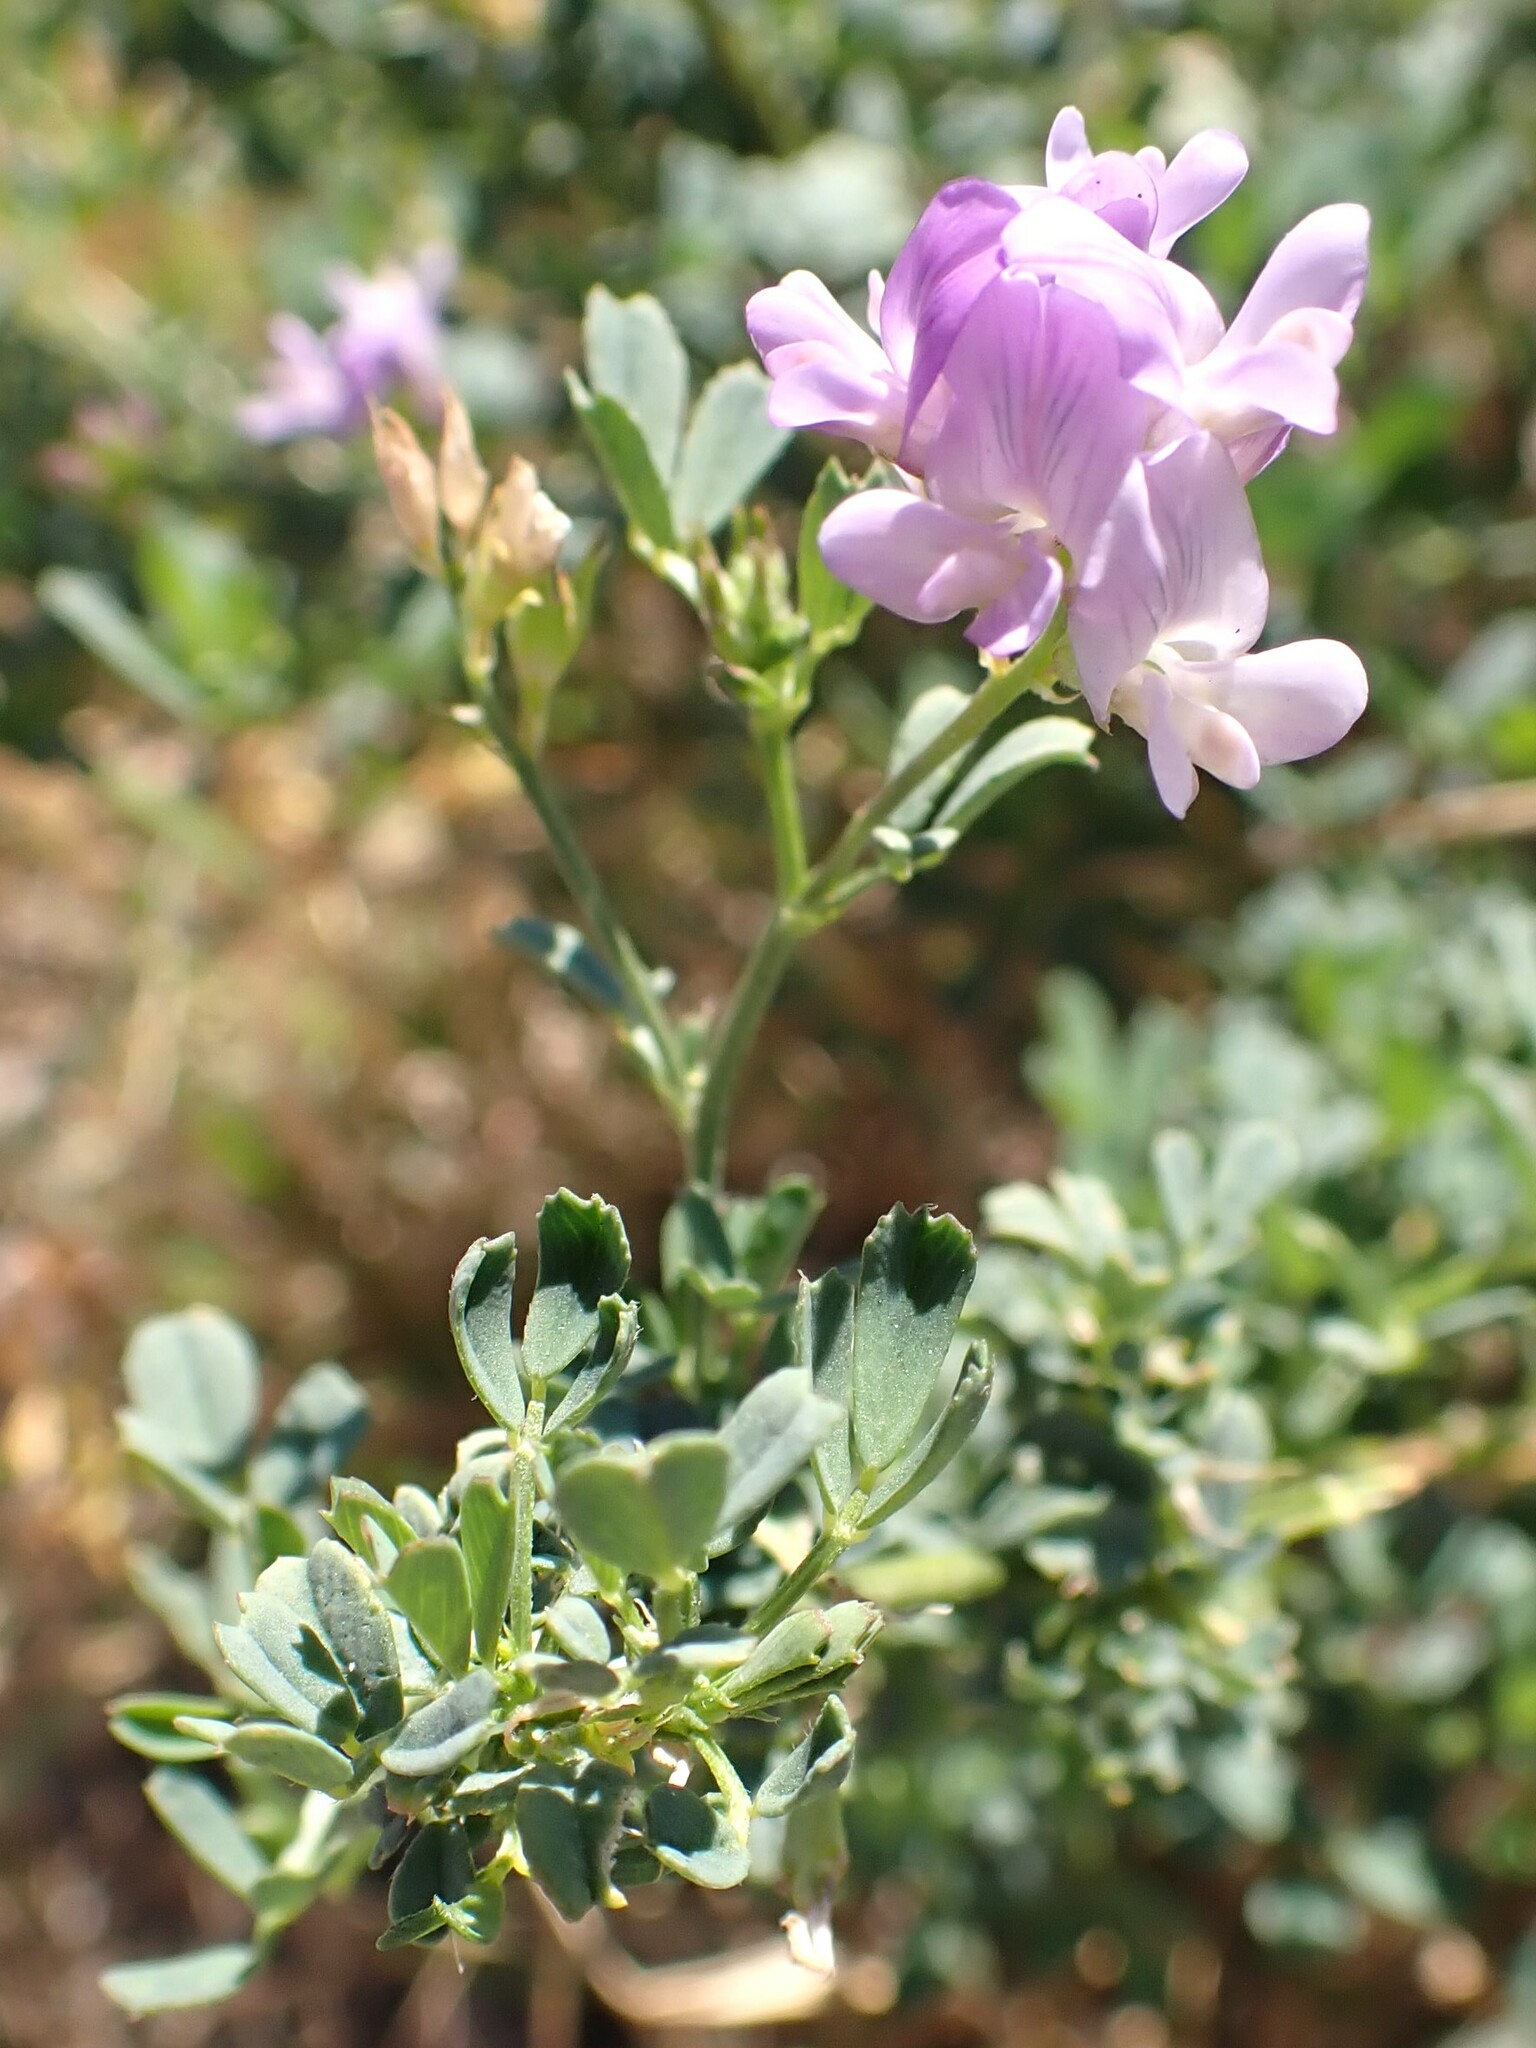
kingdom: Plantae
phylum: Tracheophyta
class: Magnoliopsida
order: Fabales
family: Fabaceae
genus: Medicago
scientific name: Medicago sativa
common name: Alfalfa
